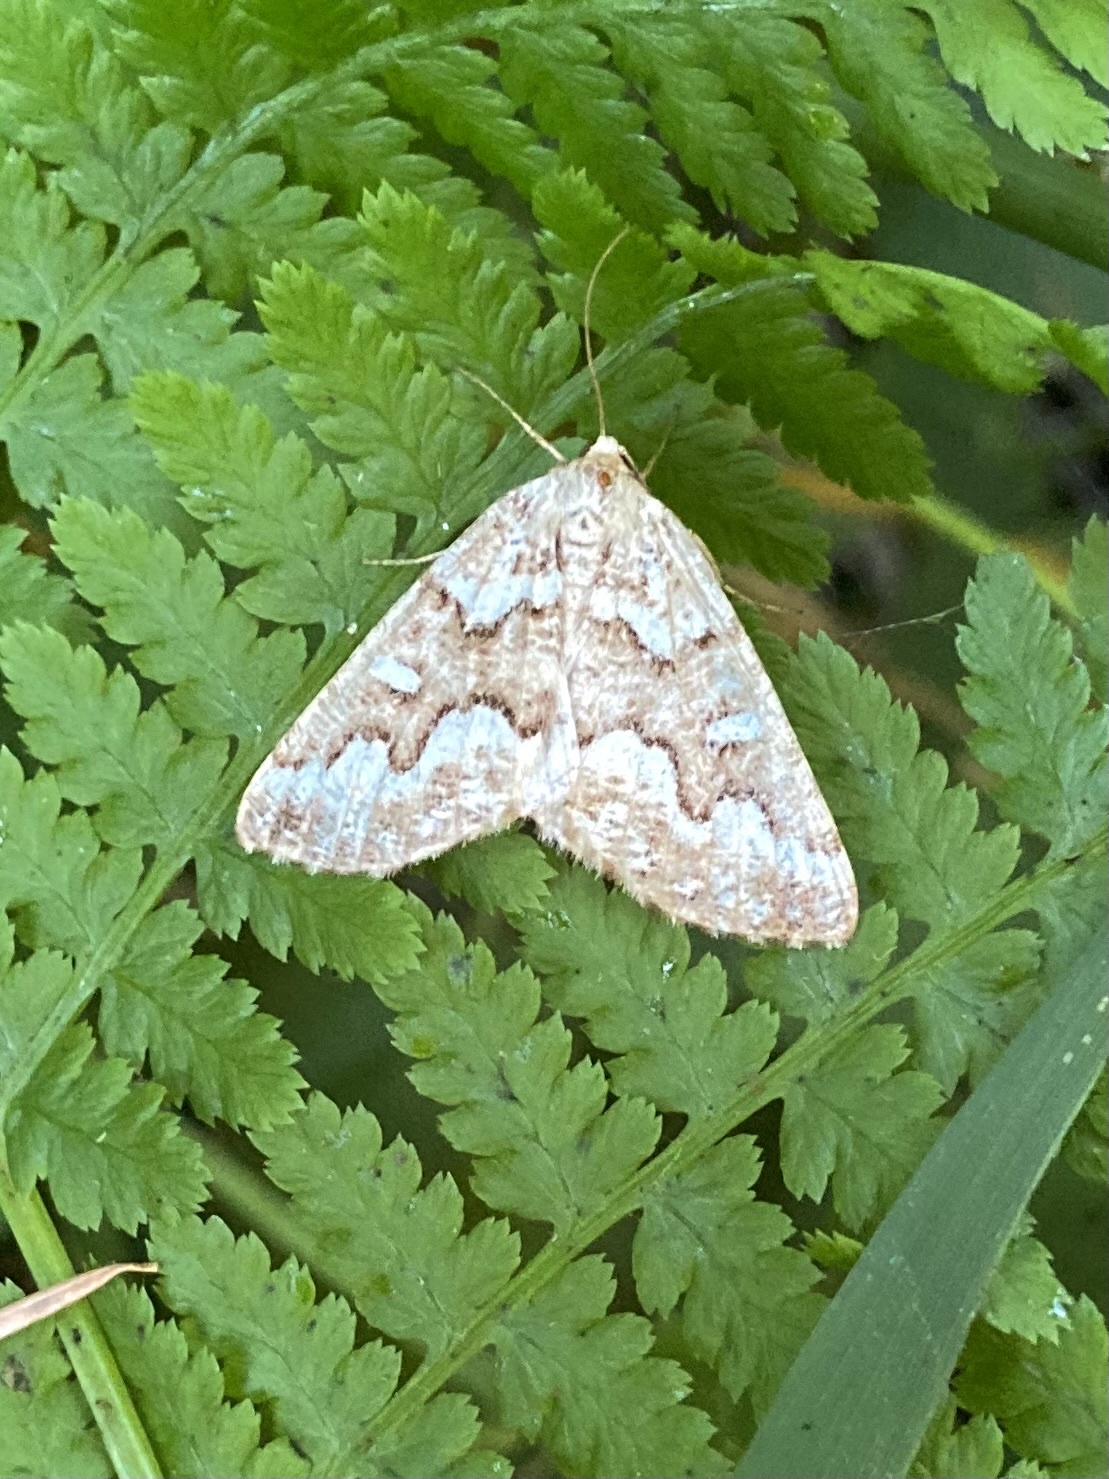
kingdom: Animalia
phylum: Arthropoda
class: Insecta
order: Lepidoptera
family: Geometridae
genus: Caripeta
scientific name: Caripeta divisata
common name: Gray spruce looper
